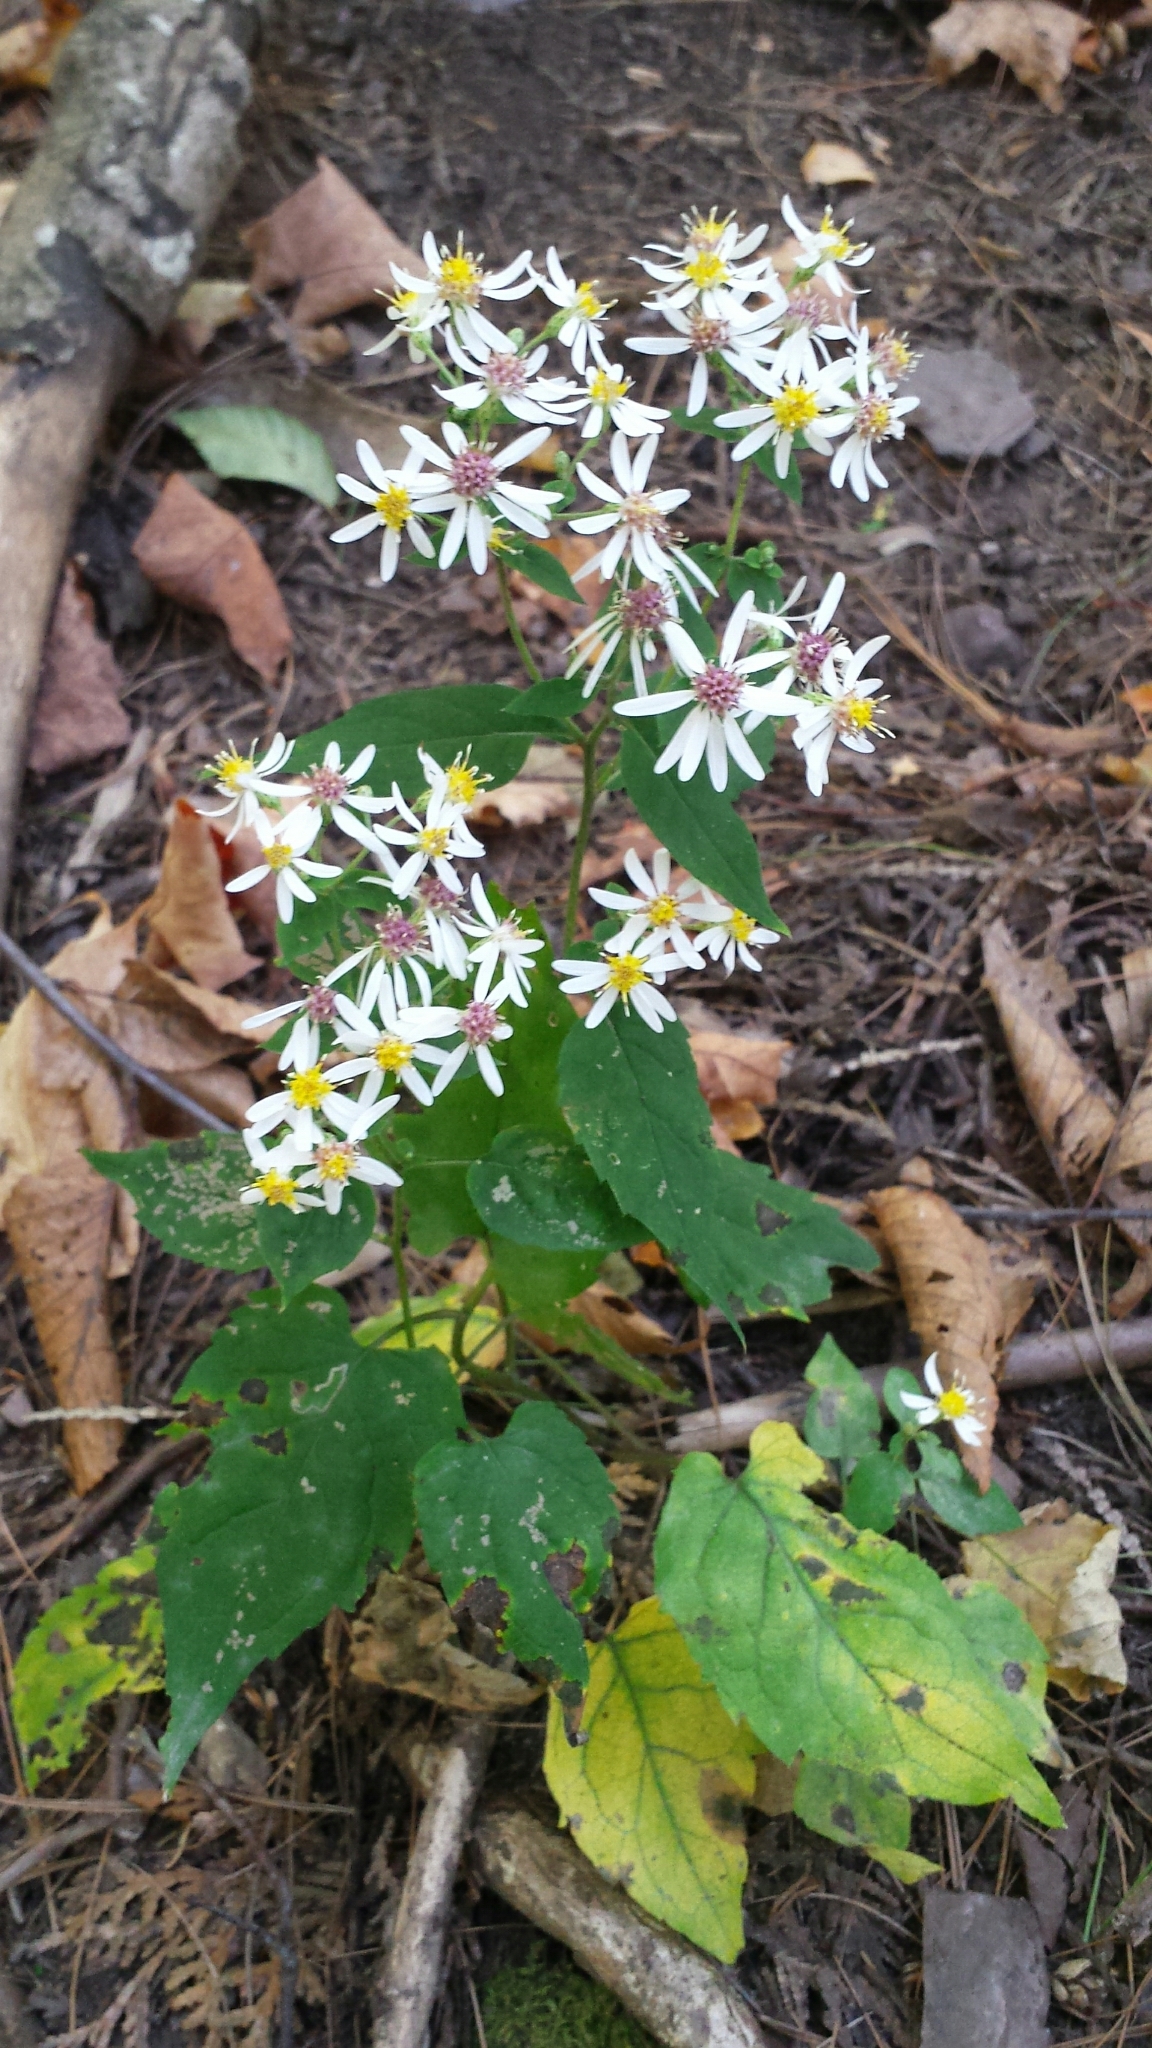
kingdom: Plantae
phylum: Tracheophyta
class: Magnoliopsida
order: Asterales
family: Asteraceae
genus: Eurybia
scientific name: Eurybia divaricata
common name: White wood aster
